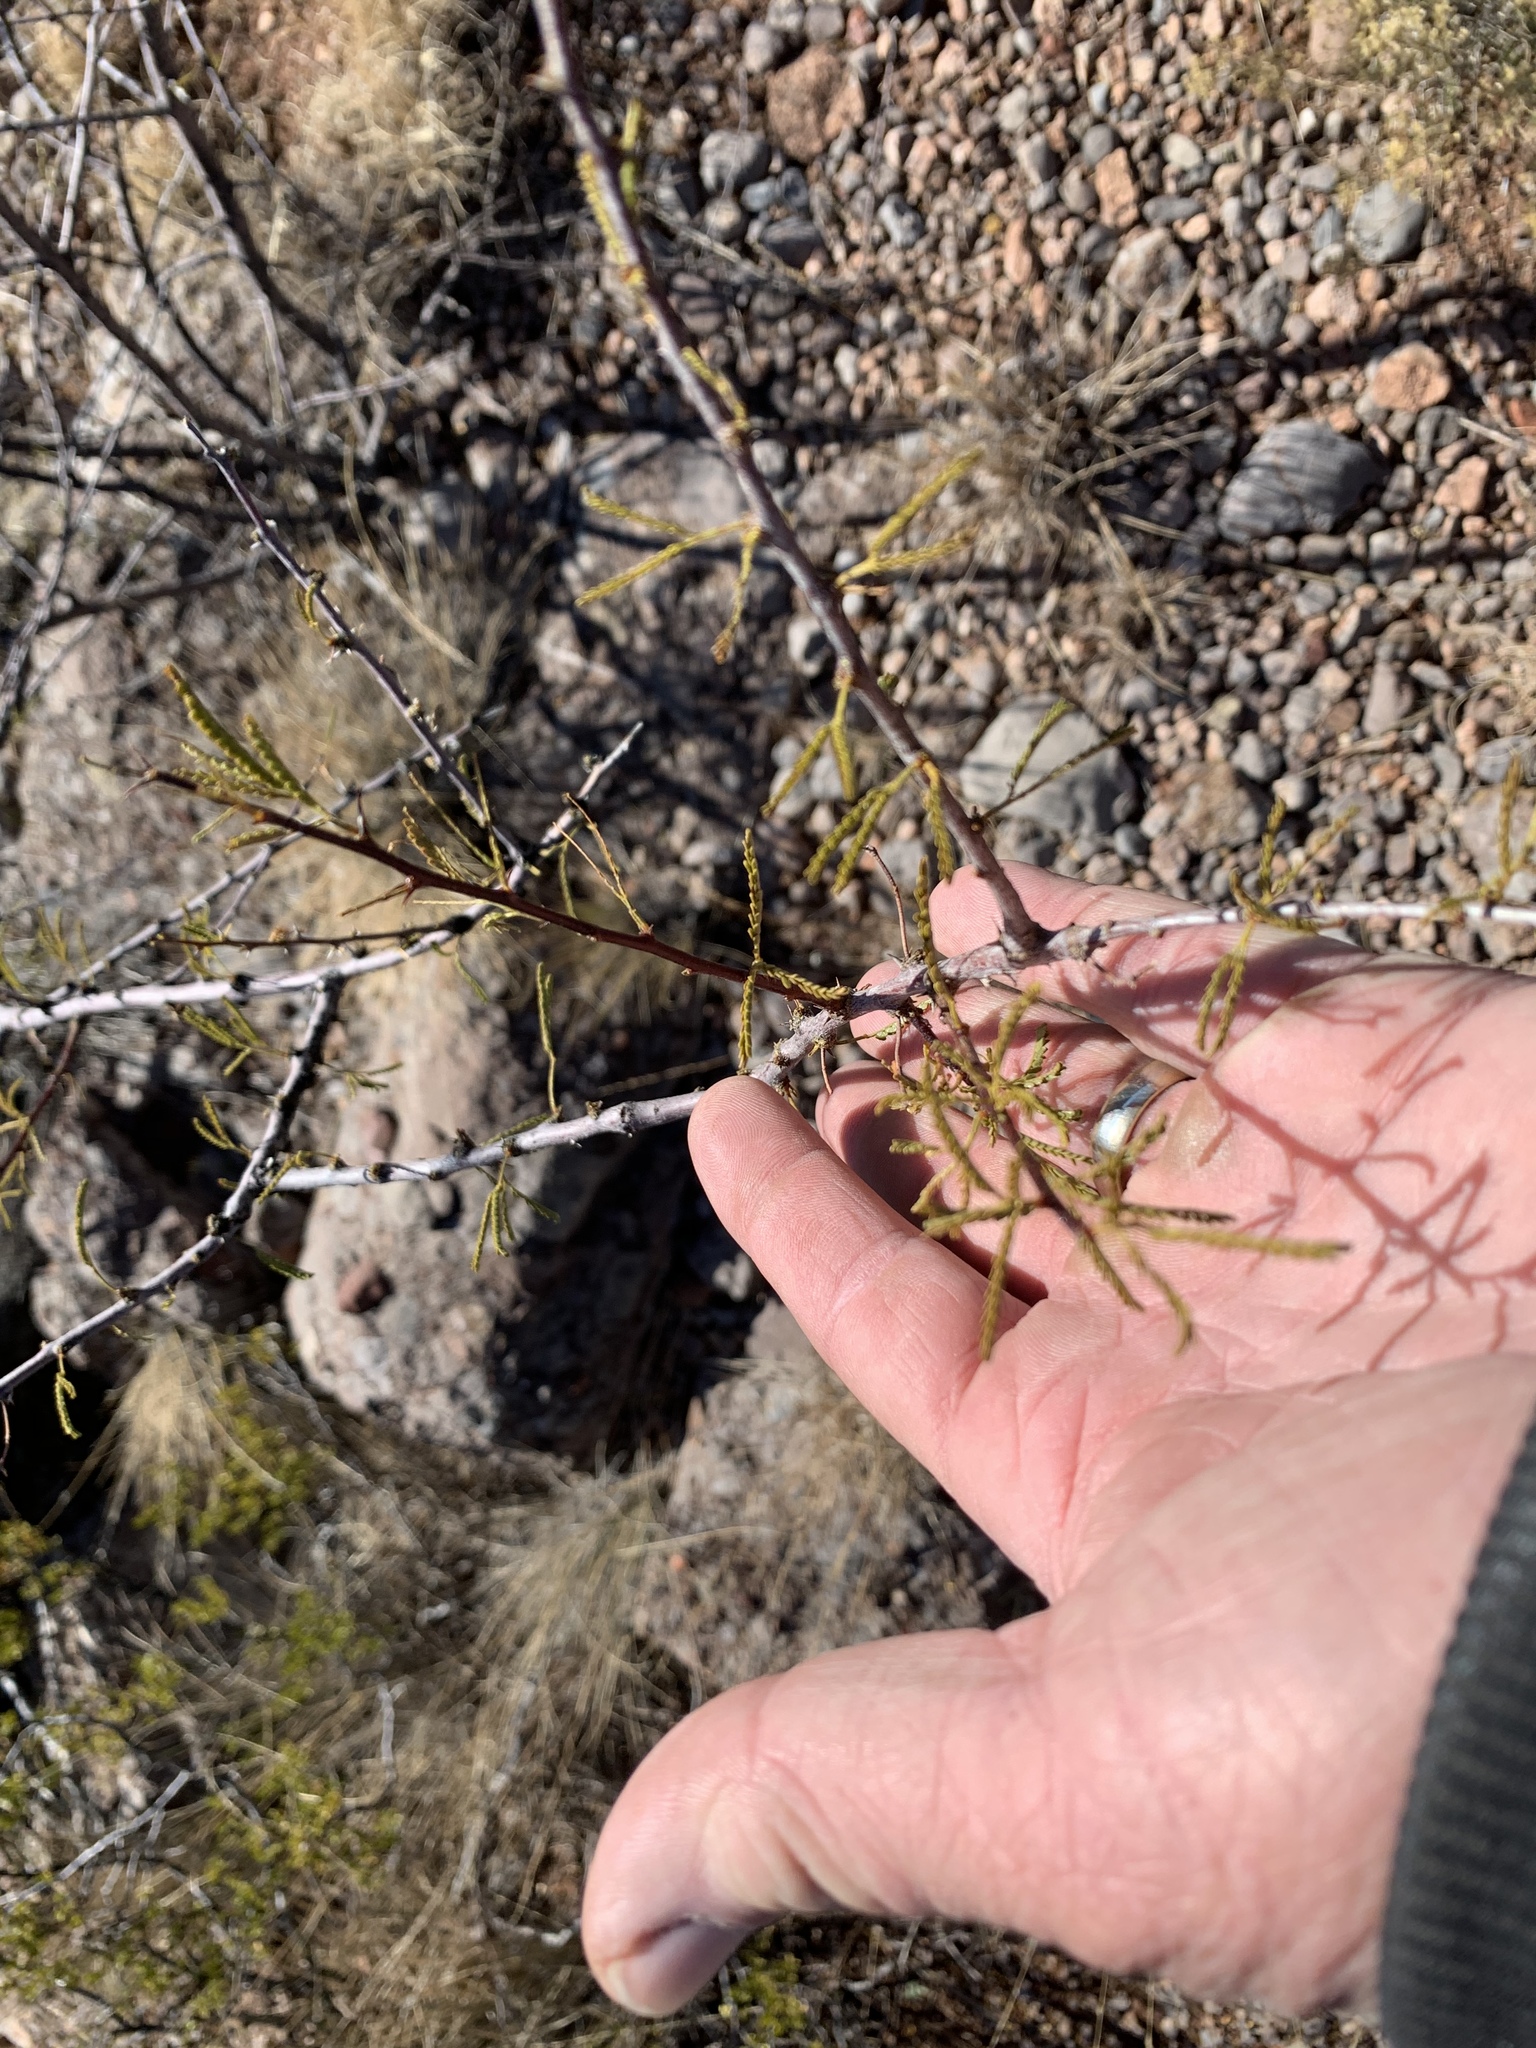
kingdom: Plantae
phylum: Tracheophyta
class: Magnoliopsida
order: Fabales
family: Fabaceae
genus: Vachellia
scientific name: Vachellia constricta
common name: Mescat acacia
